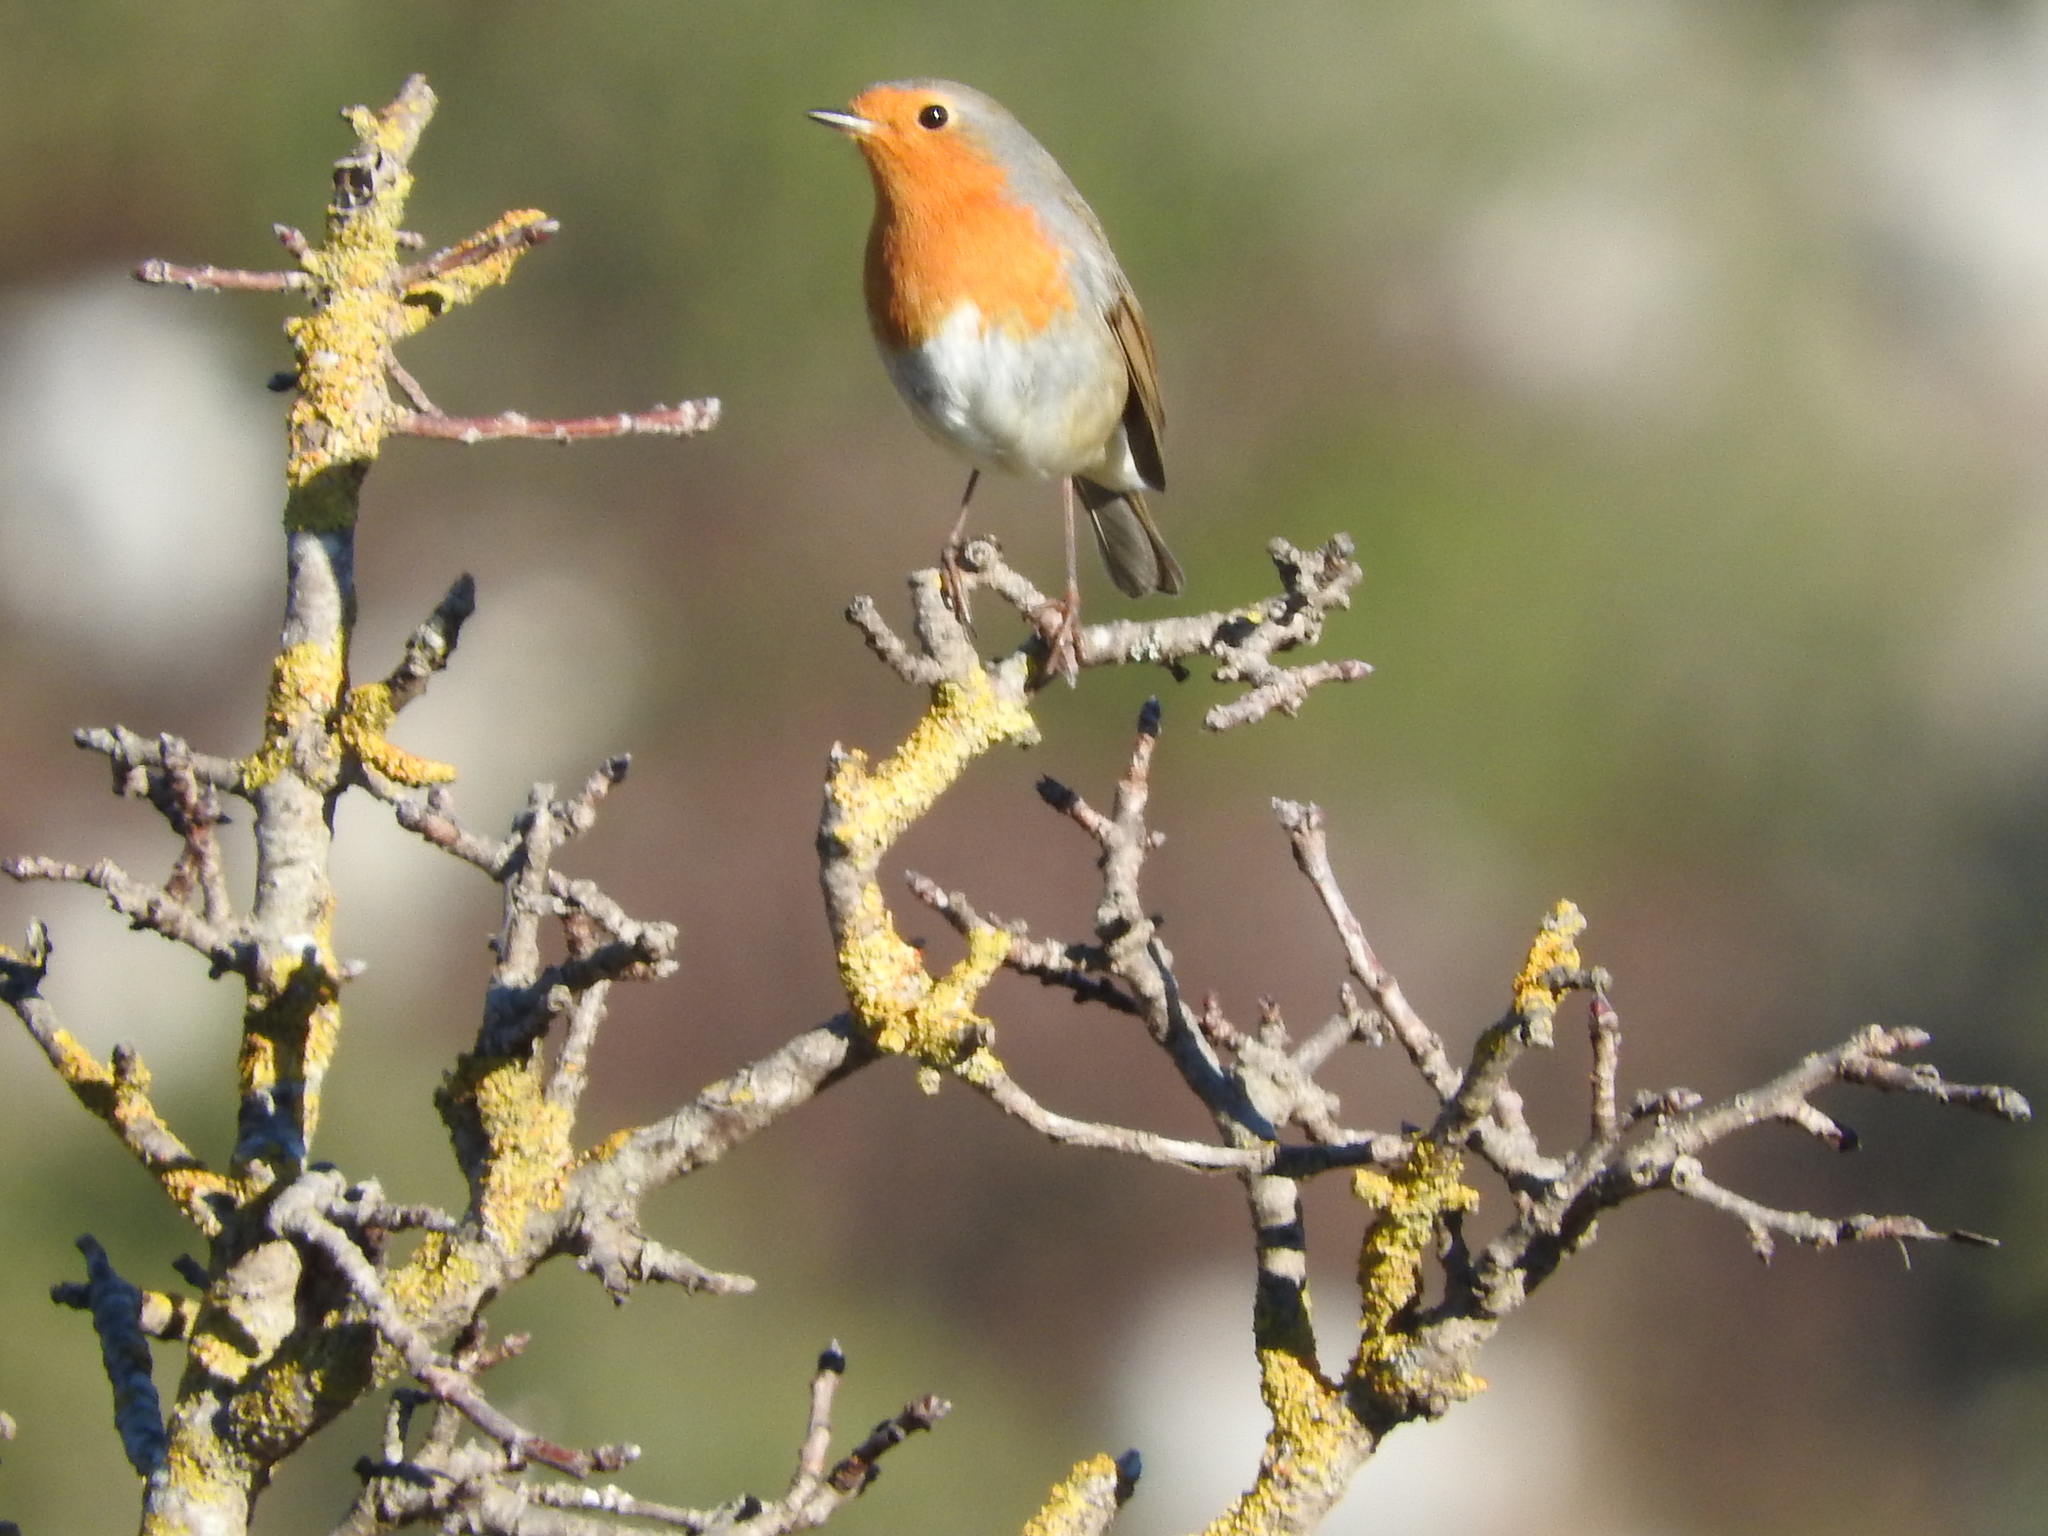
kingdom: Animalia
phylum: Chordata
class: Aves
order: Passeriformes
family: Muscicapidae
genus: Erithacus
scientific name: Erithacus rubecula
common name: European robin
